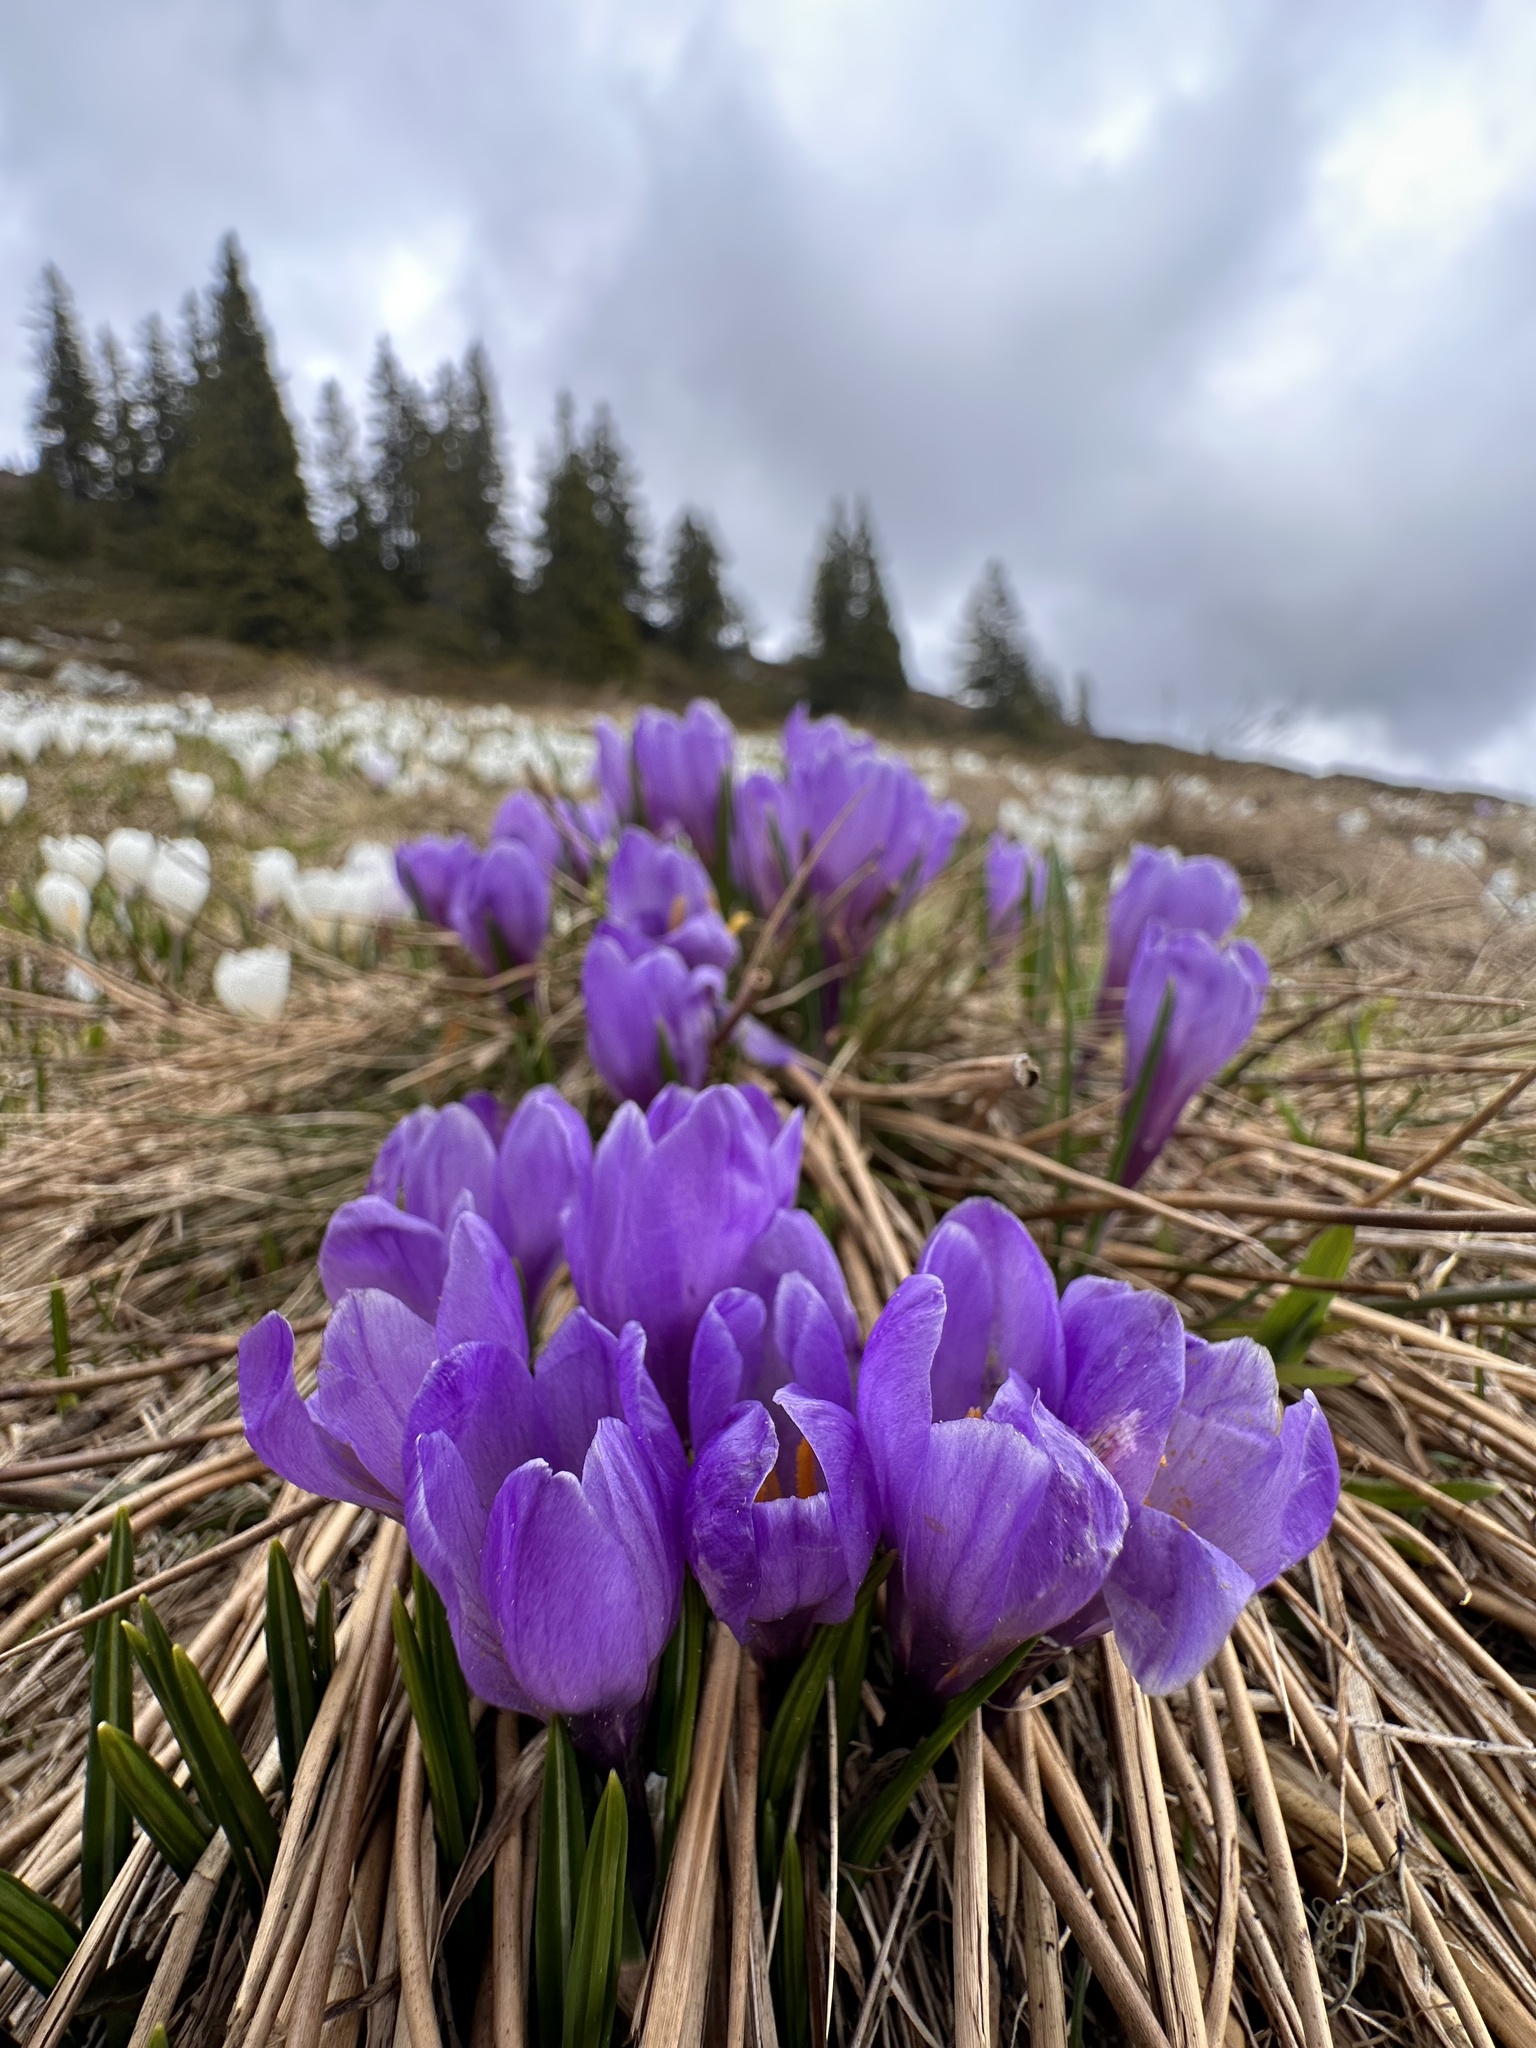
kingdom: Plantae
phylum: Tracheophyta
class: Liliopsida
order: Asparagales
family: Iridaceae
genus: Crocus
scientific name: Crocus vernus
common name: Spring crocus
